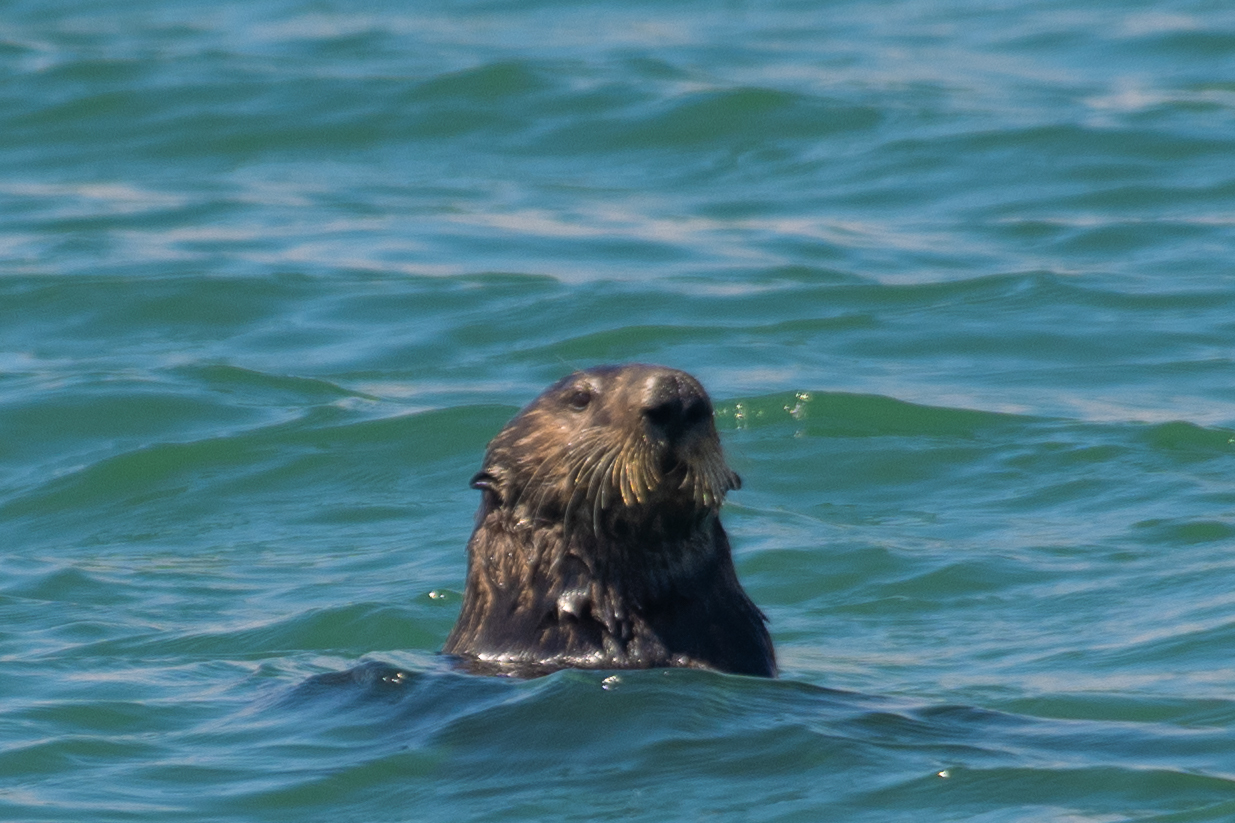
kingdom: Animalia
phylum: Chordata
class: Mammalia
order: Carnivora
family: Mustelidae
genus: Enhydra
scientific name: Enhydra lutris
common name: Sea otter
